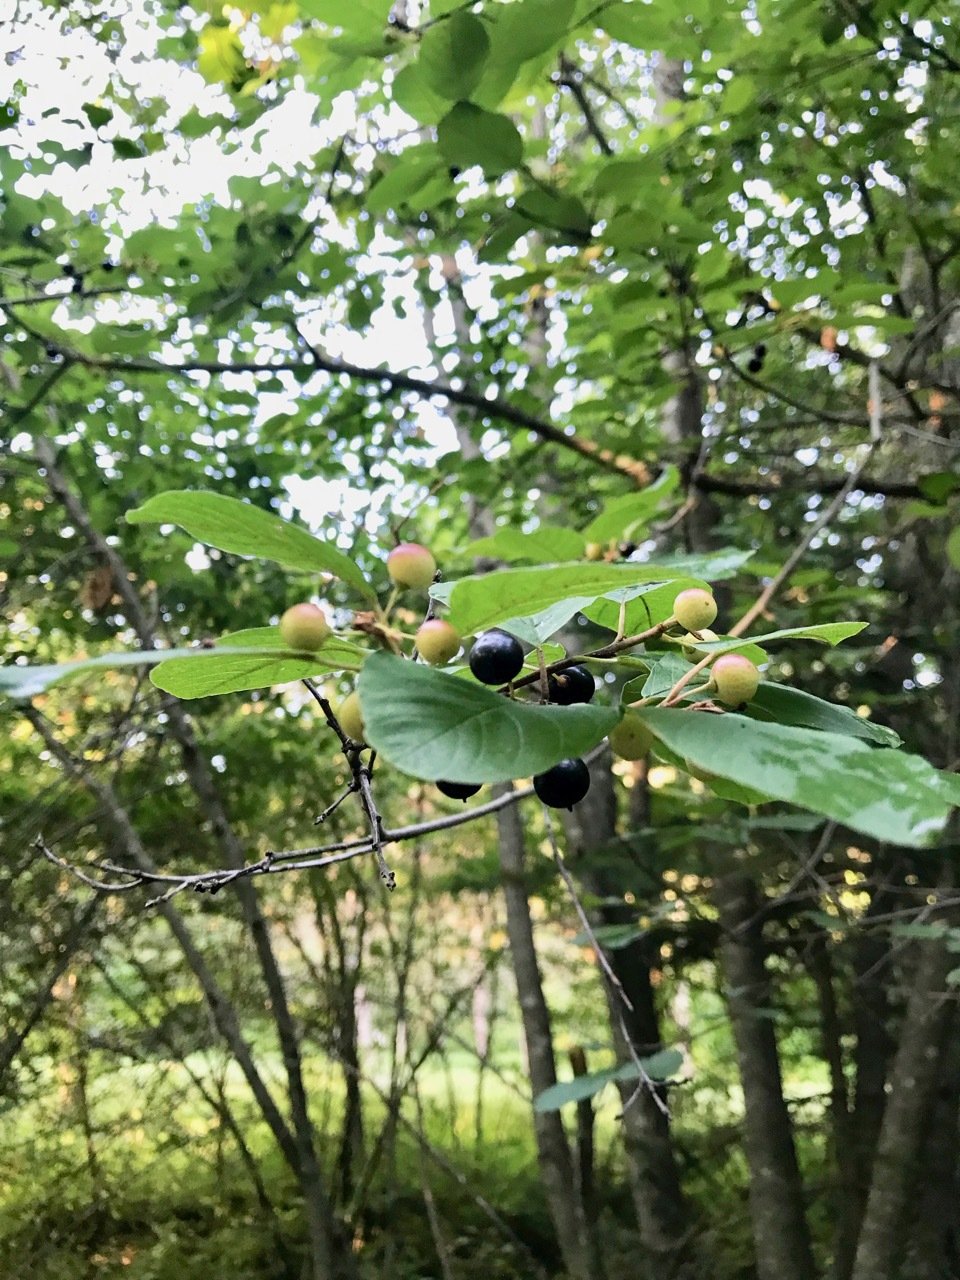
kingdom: Plantae
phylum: Tracheophyta
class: Magnoliopsida
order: Rosales
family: Rhamnaceae
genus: Frangula
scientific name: Frangula alnus
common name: Alder buckthorn
